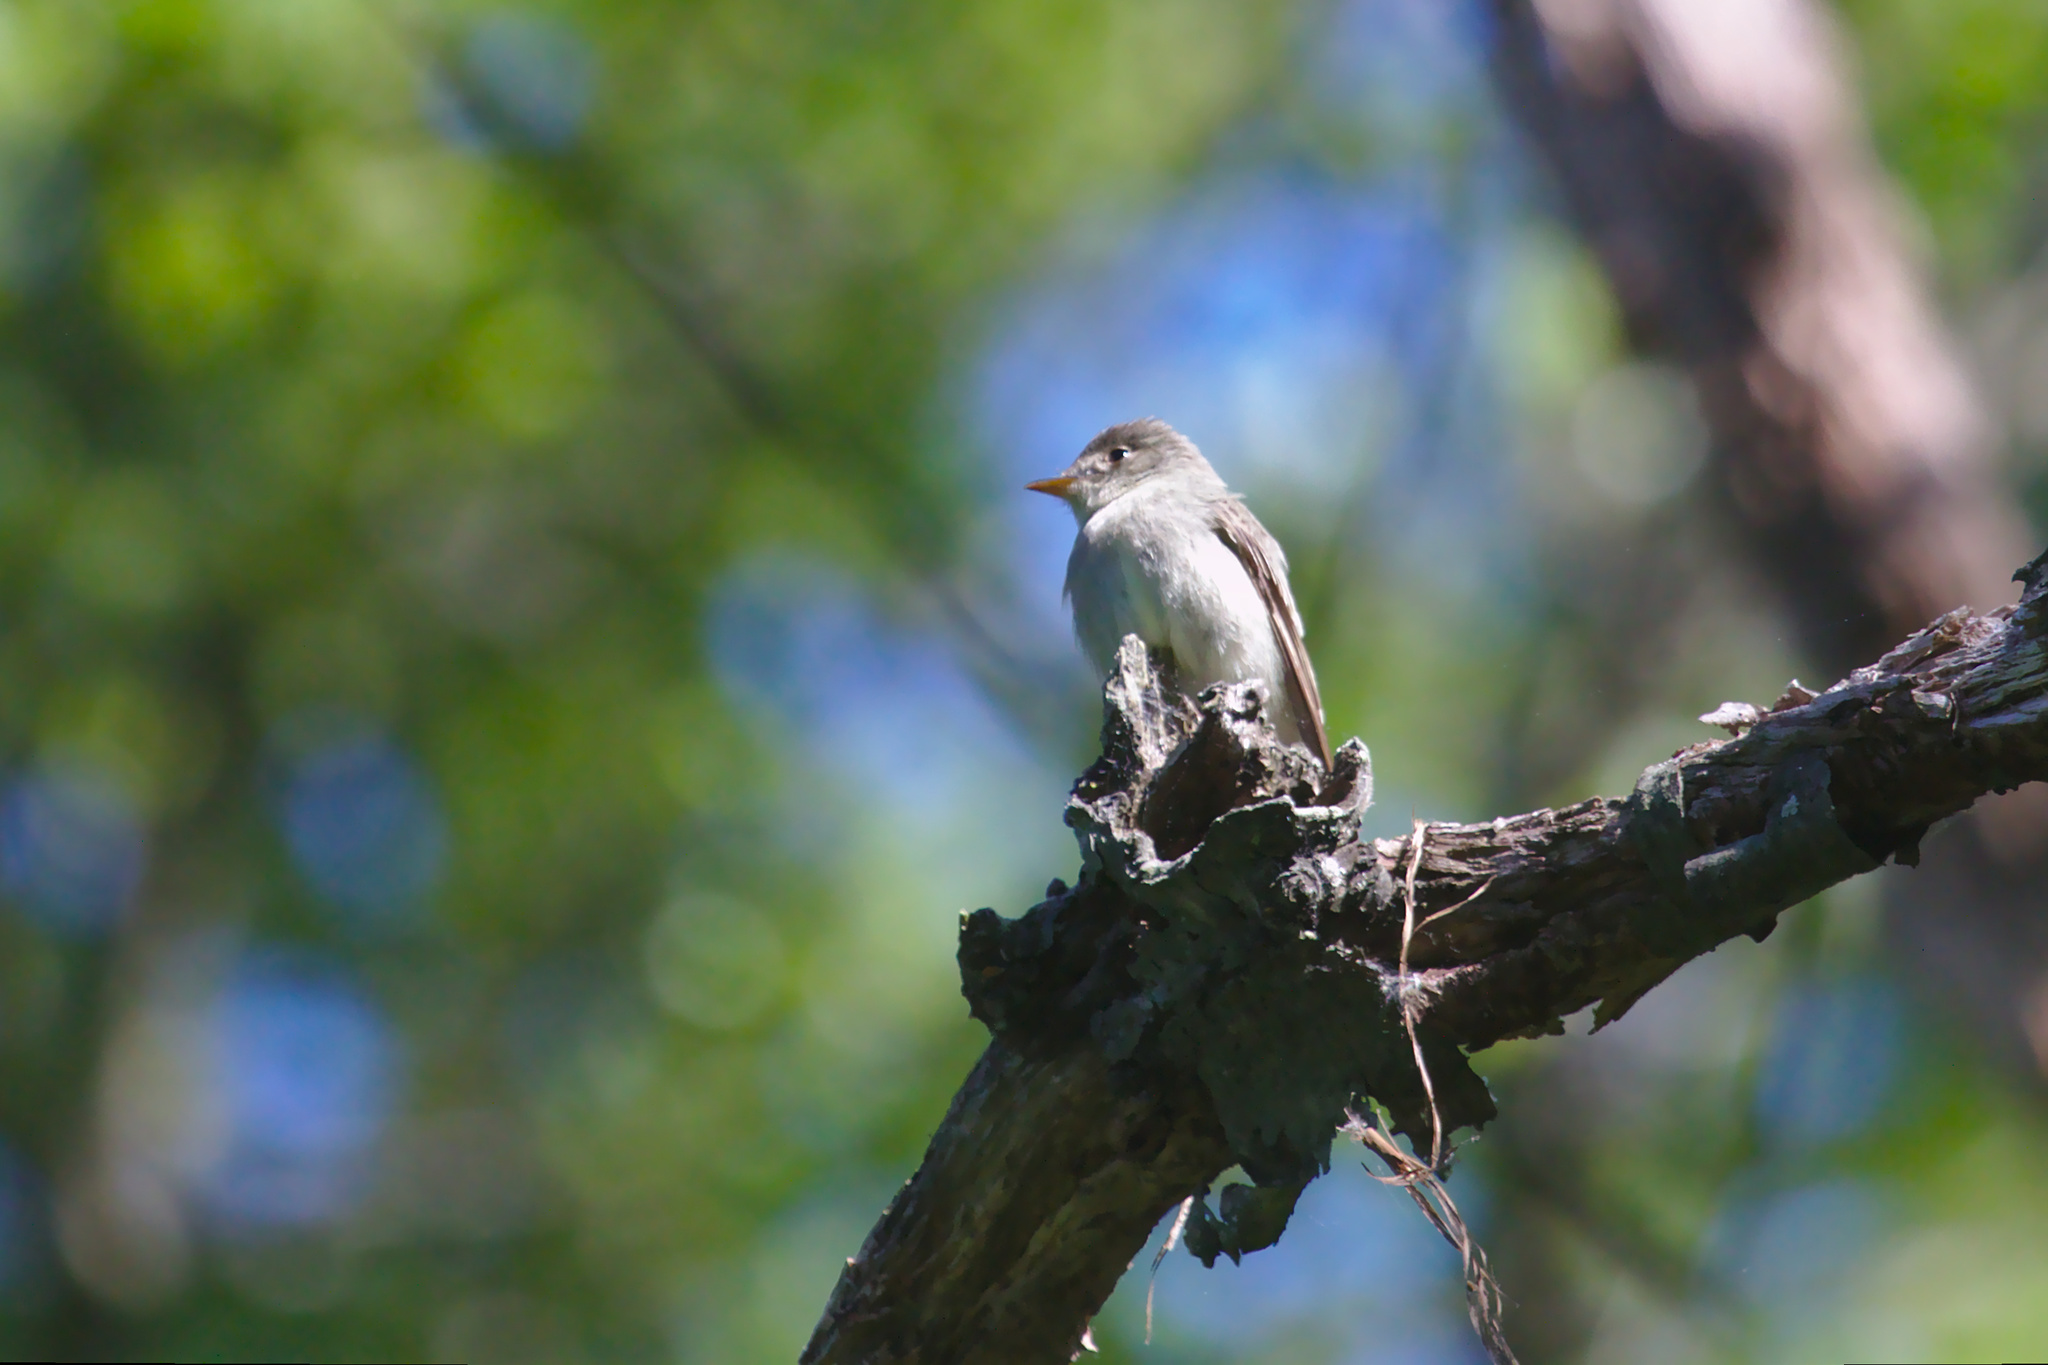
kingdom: Animalia
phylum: Chordata
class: Aves
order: Passeriformes
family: Tyrannidae
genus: Contopus
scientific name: Contopus virens
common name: Eastern wood-pewee
